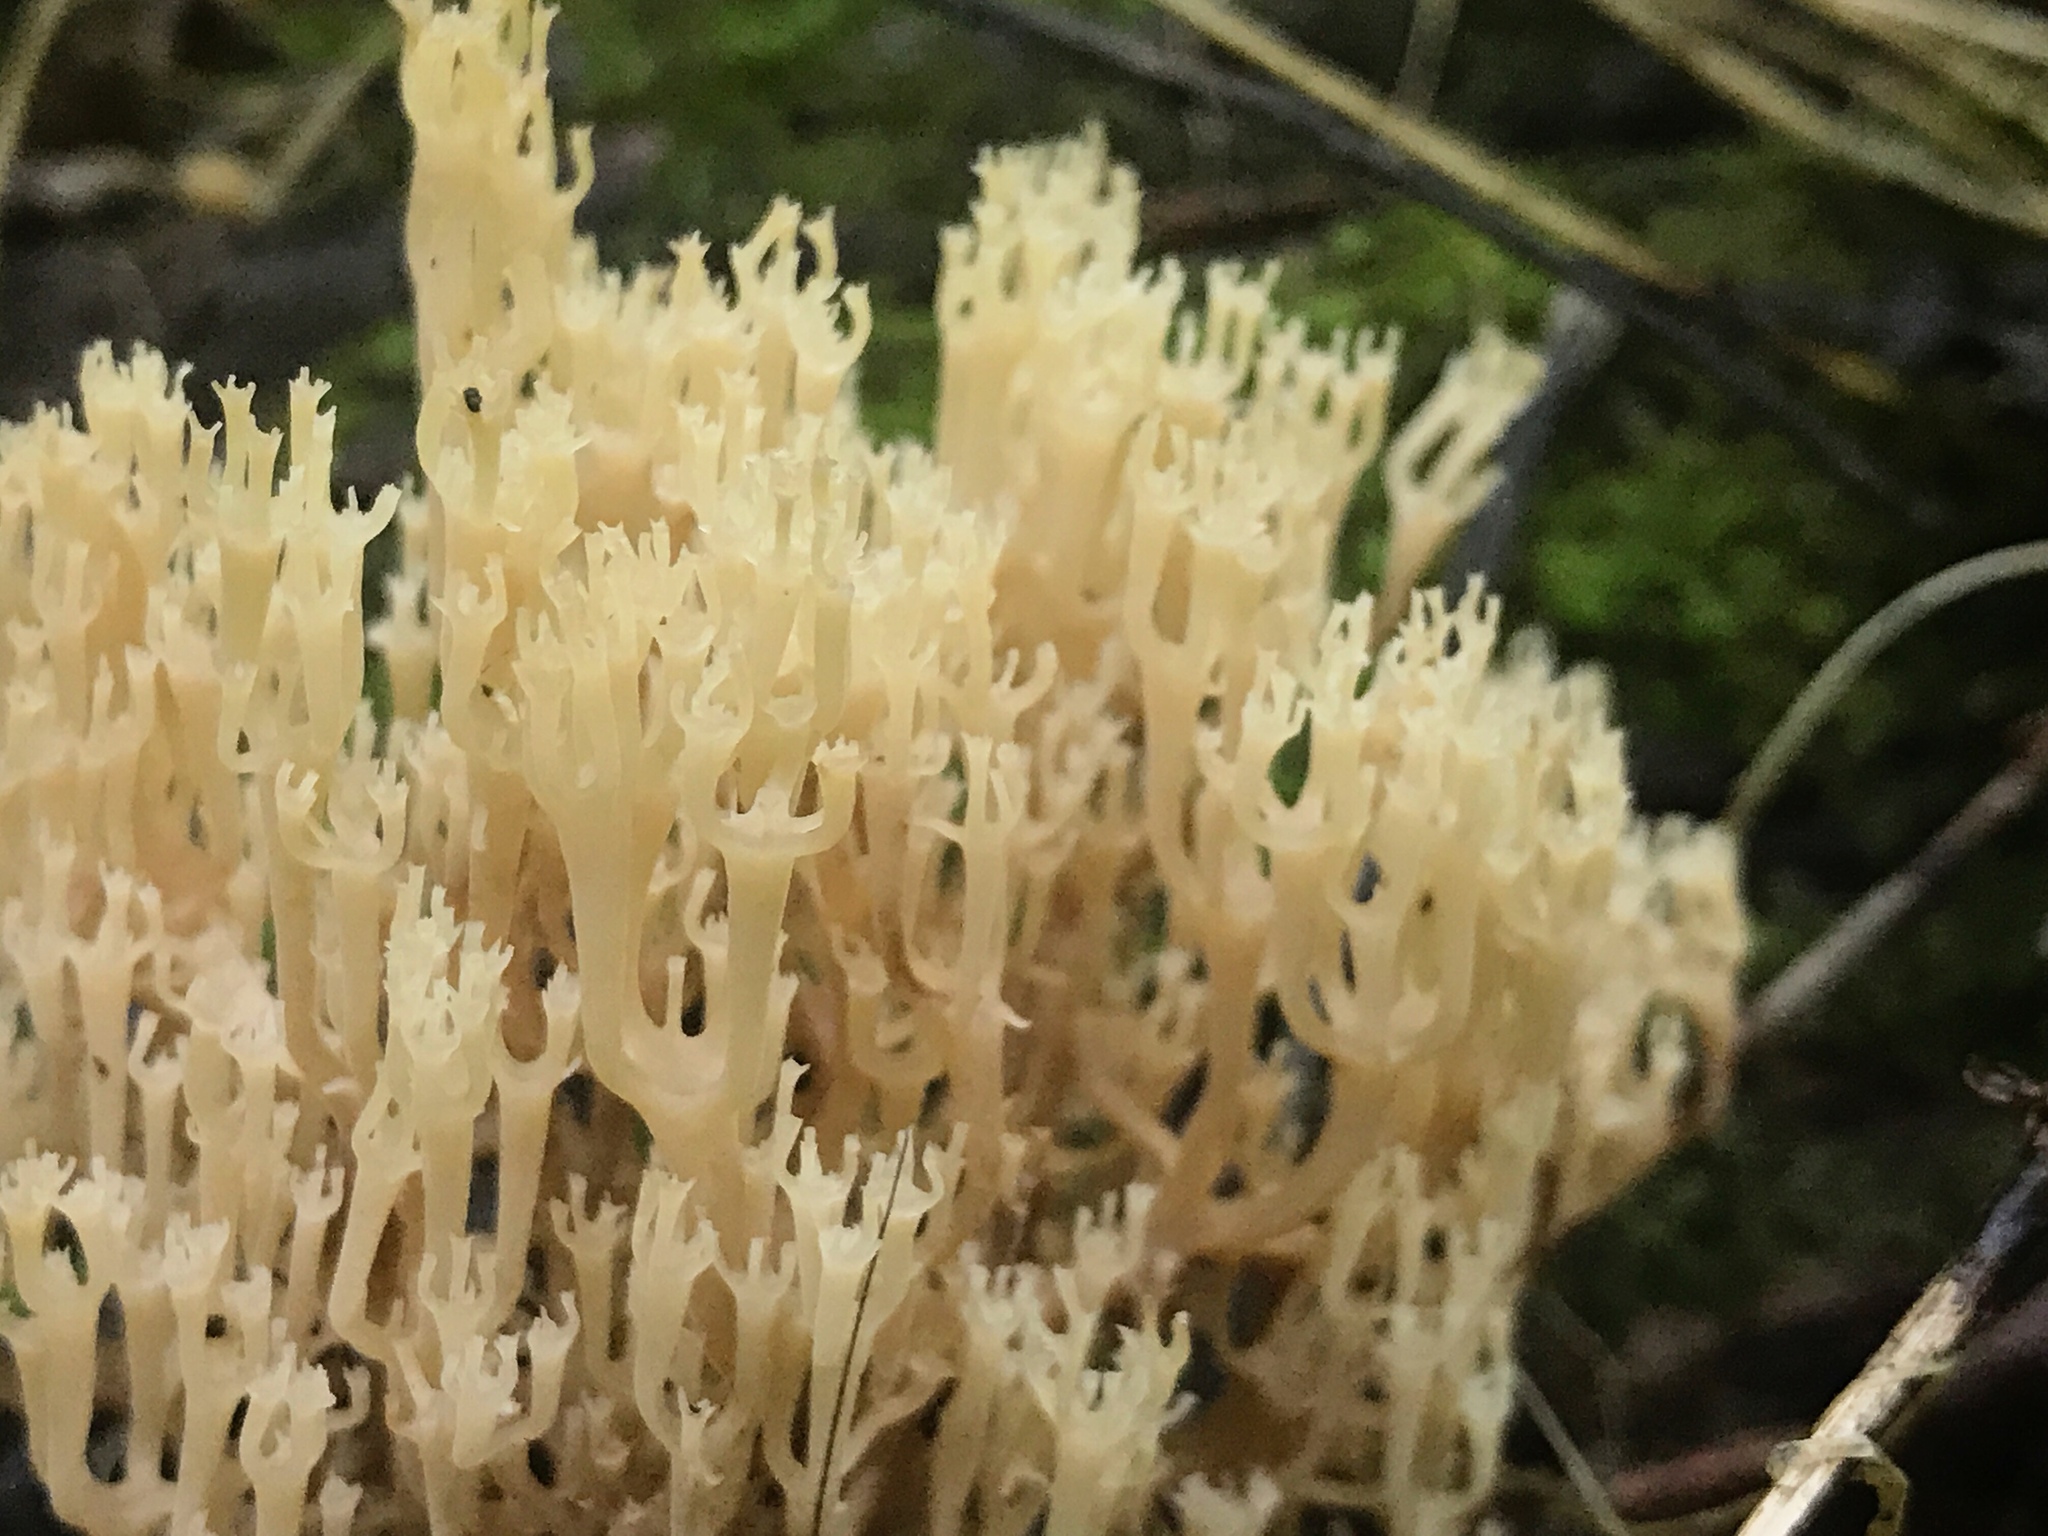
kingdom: Fungi
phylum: Basidiomycota
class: Agaricomycetes
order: Russulales
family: Auriscalpiaceae
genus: Artomyces
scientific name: Artomyces pyxidatus
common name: Crown-tipped coral fungus
